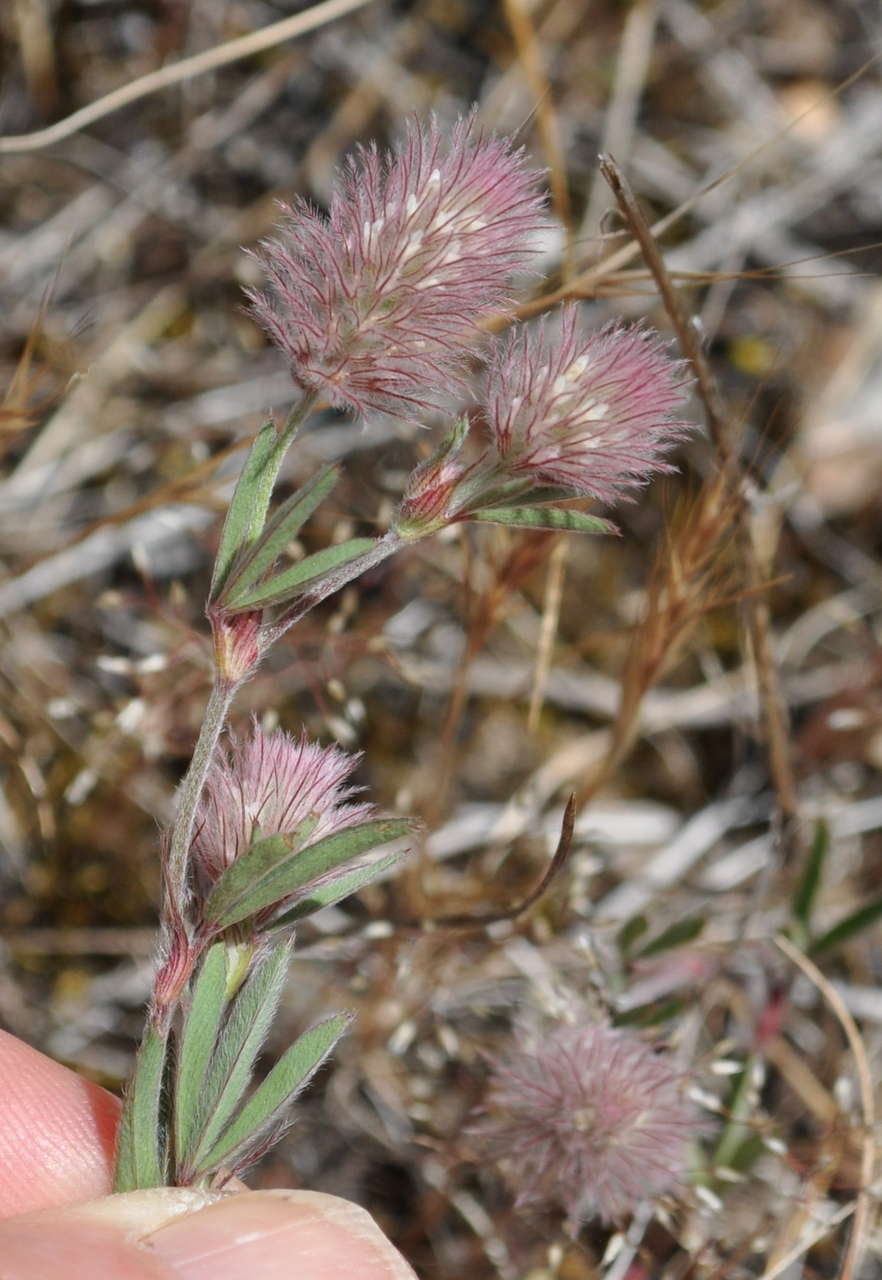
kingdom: Plantae
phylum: Tracheophyta
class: Magnoliopsida
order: Fabales
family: Fabaceae
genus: Trifolium
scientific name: Trifolium arvense
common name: Hare's-foot clover
